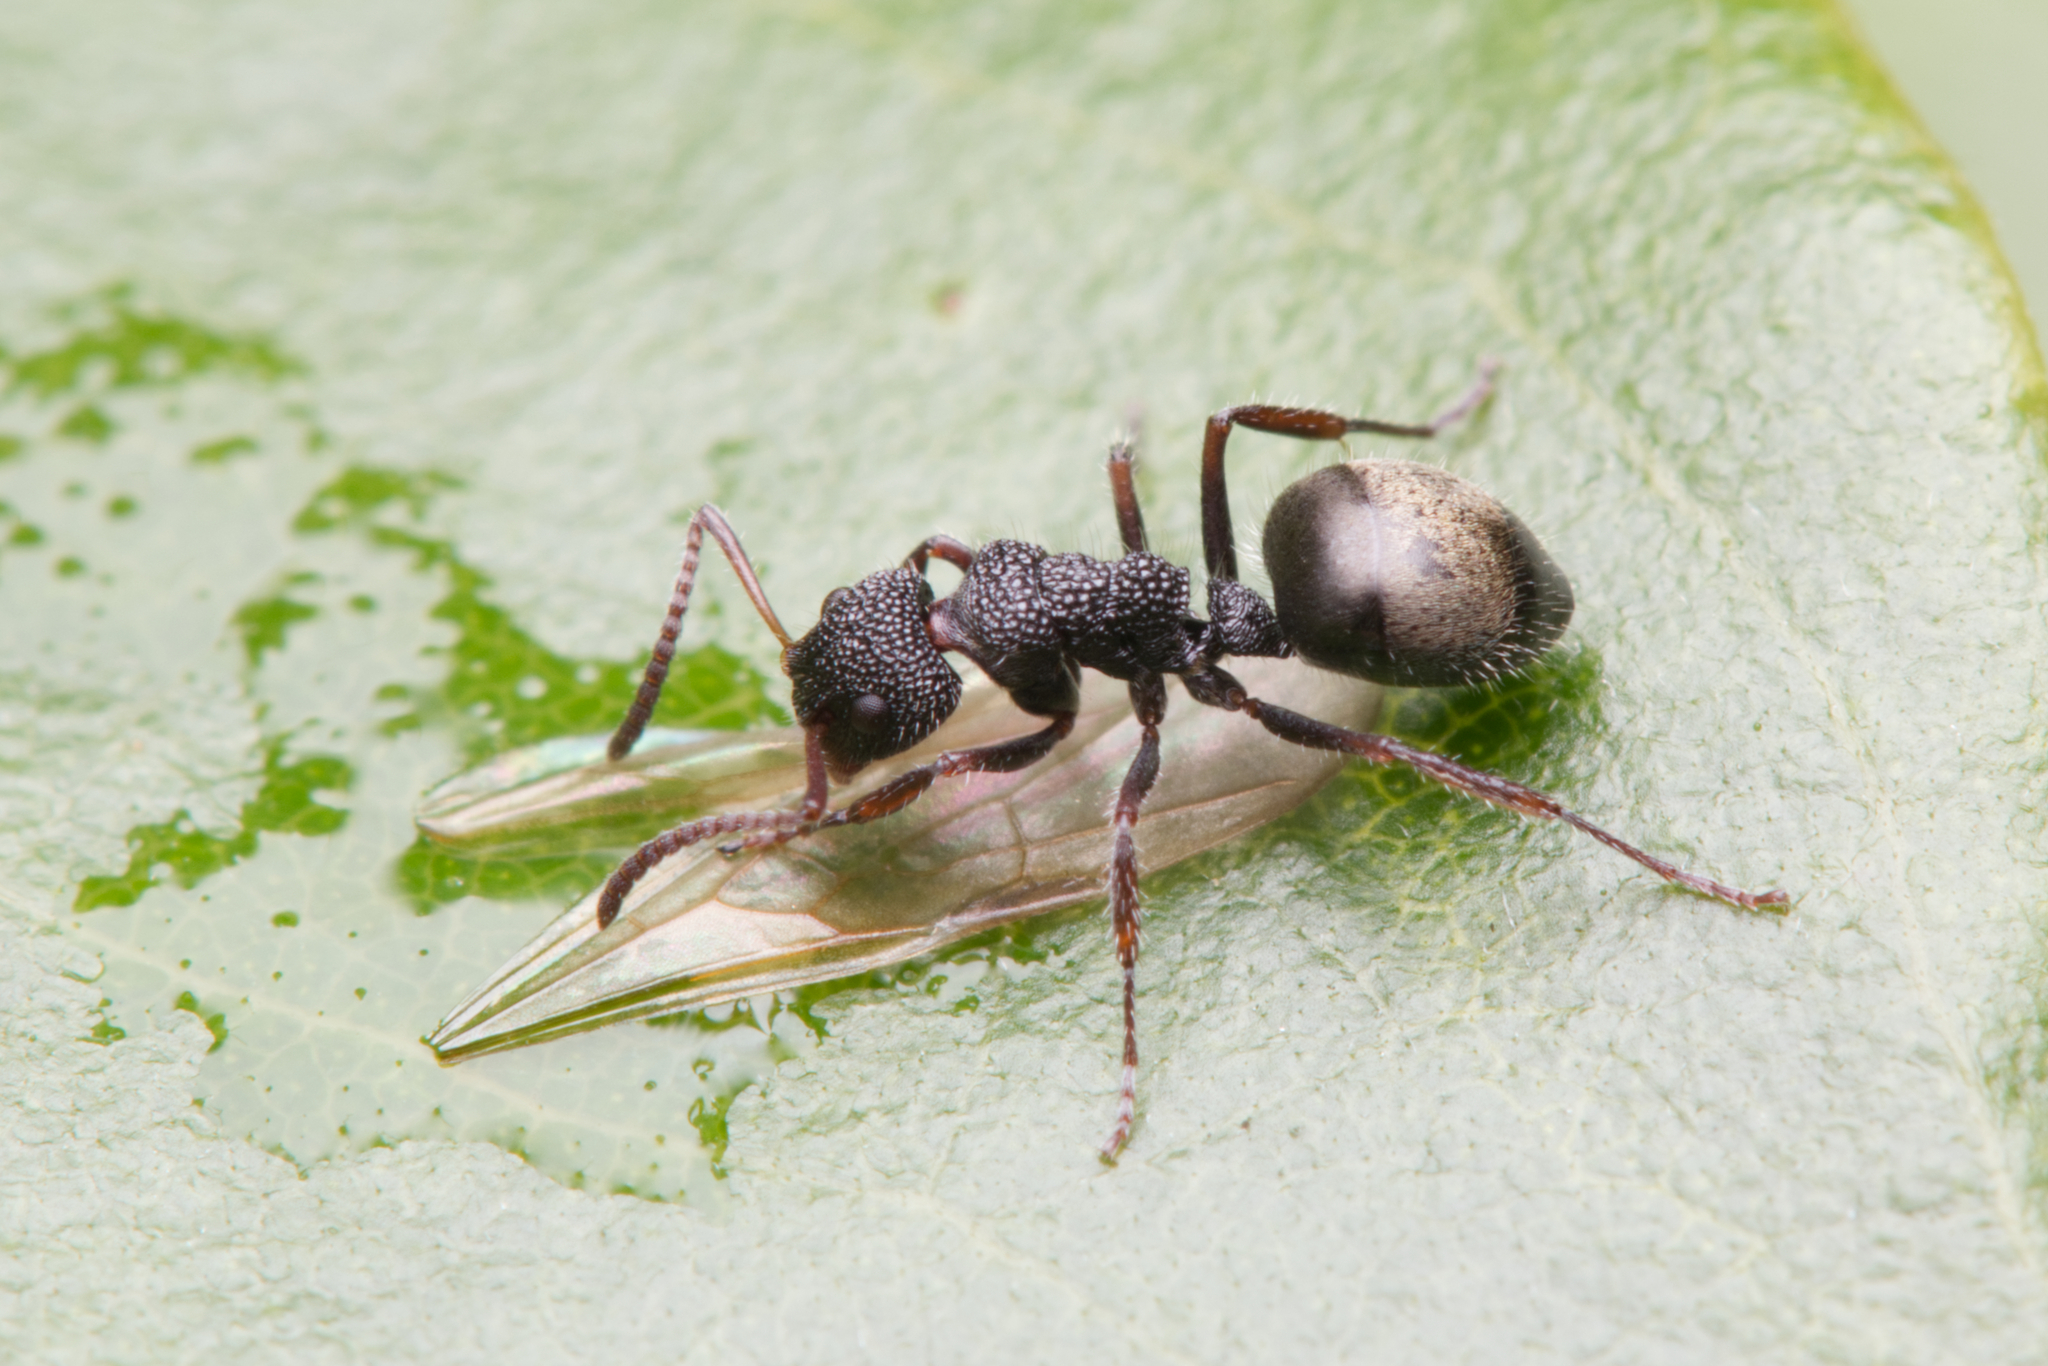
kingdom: Animalia
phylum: Arthropoda
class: Insecta
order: Hymenoptera
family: Formicidae
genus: Dolichoderus
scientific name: Dolichoderus scrobiculatus
